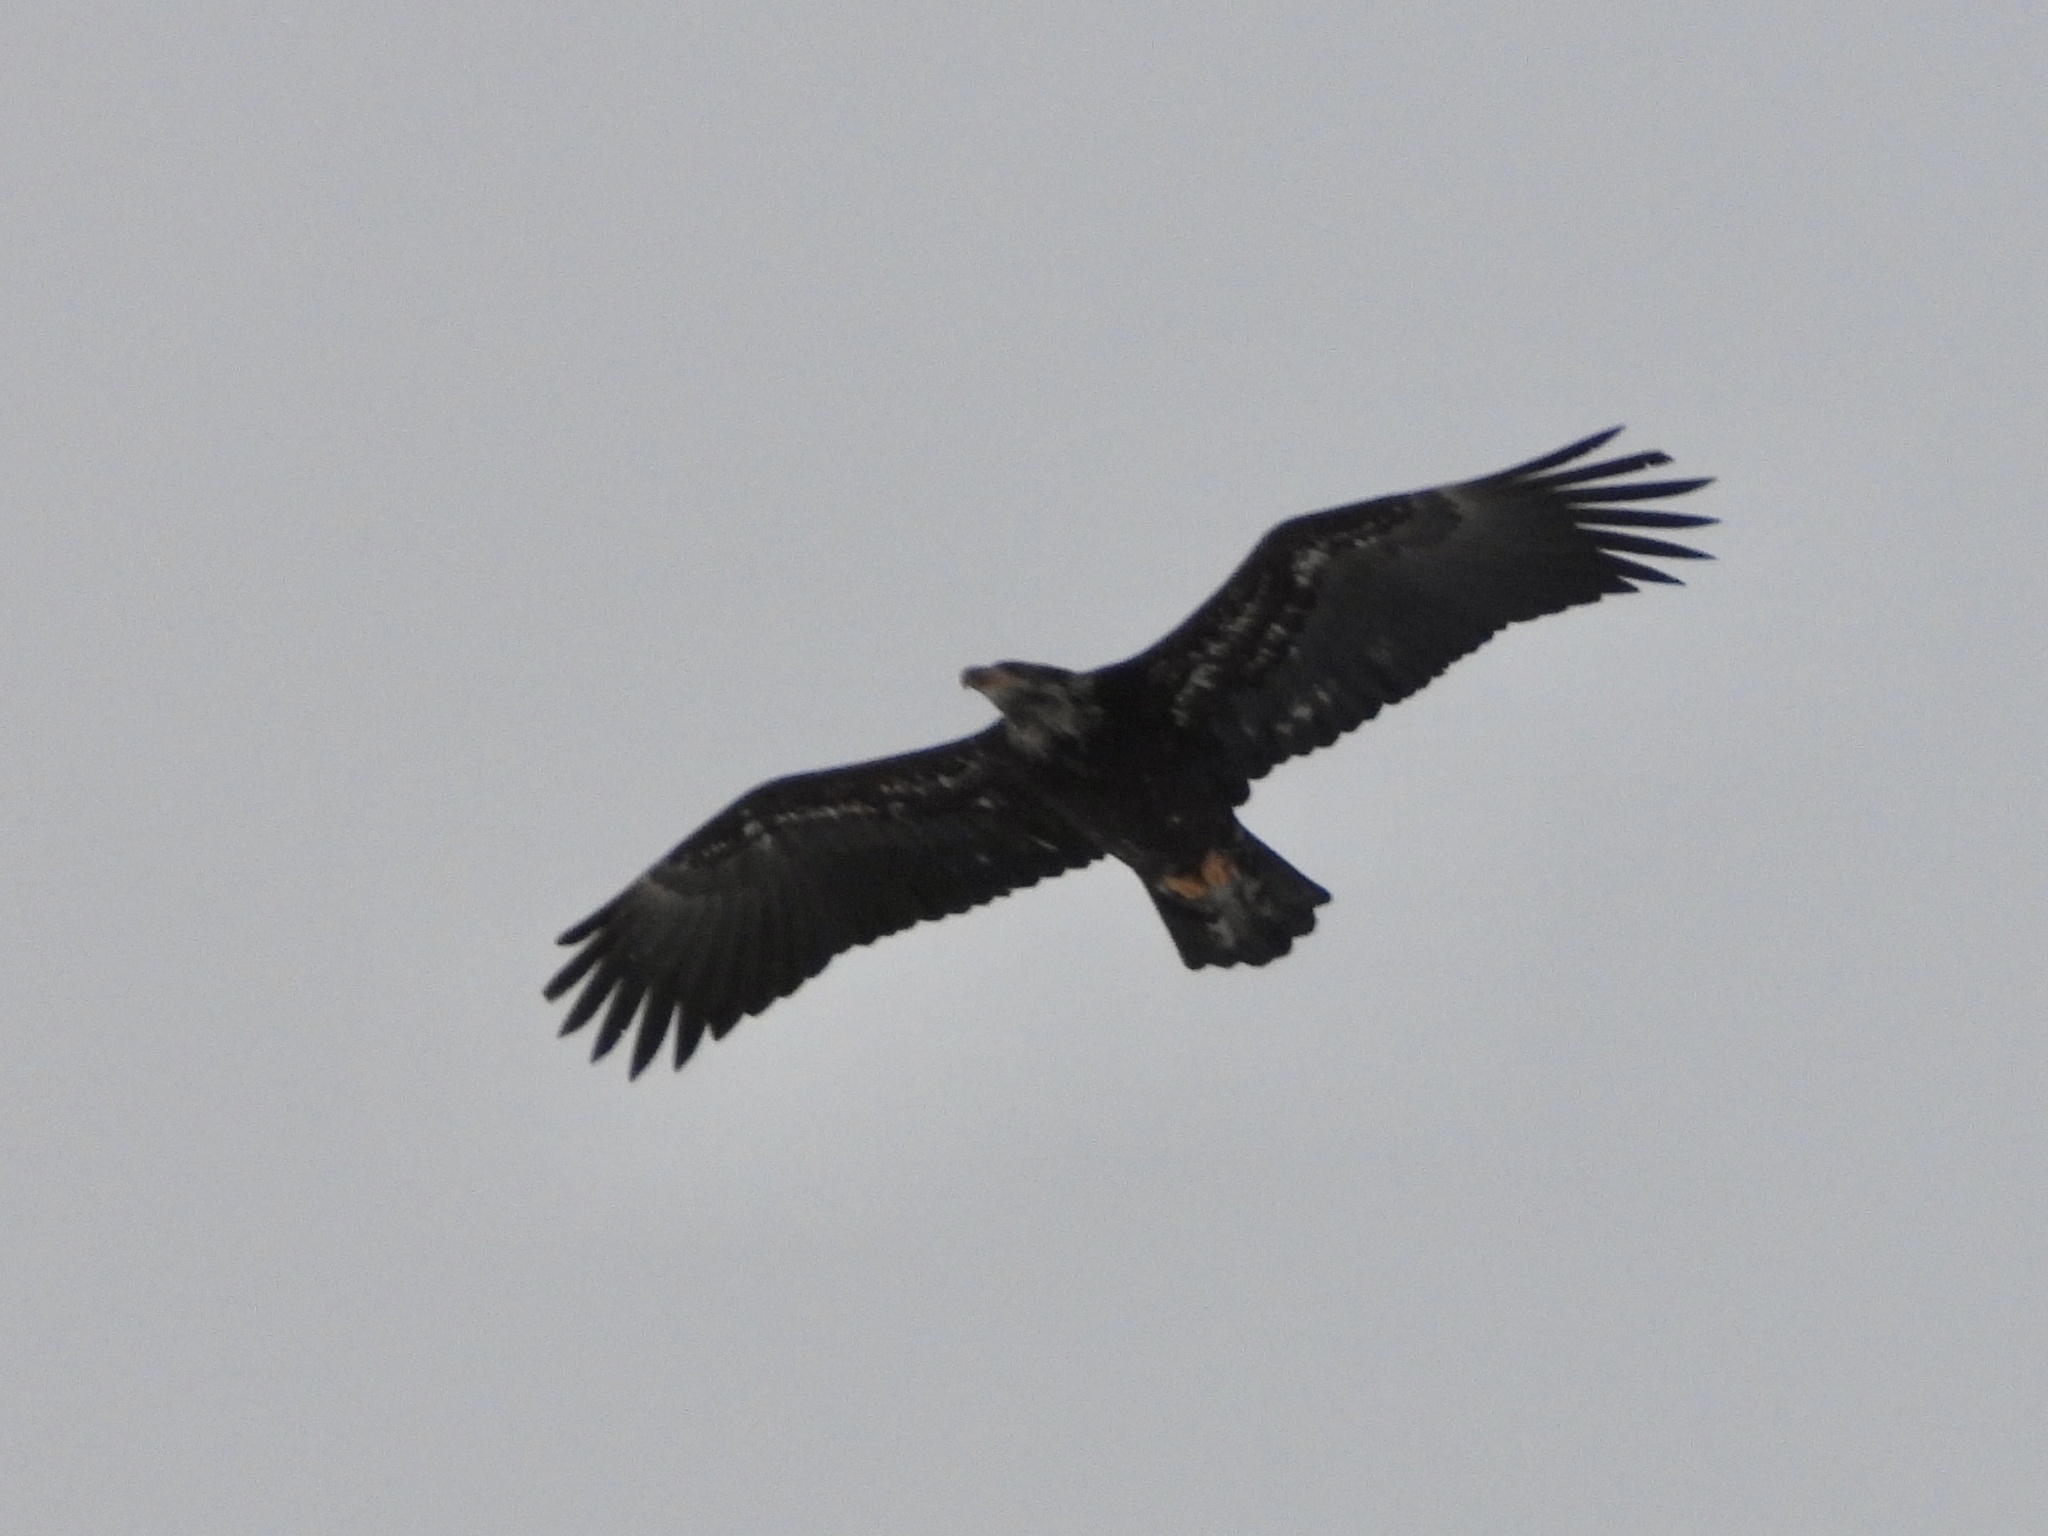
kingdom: Animalia
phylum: Chordata
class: Aves
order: Accipitriformes
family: Accipitridae
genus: Haliaeetus
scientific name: Haliaeetus leucocephalus
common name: Bald eagle
